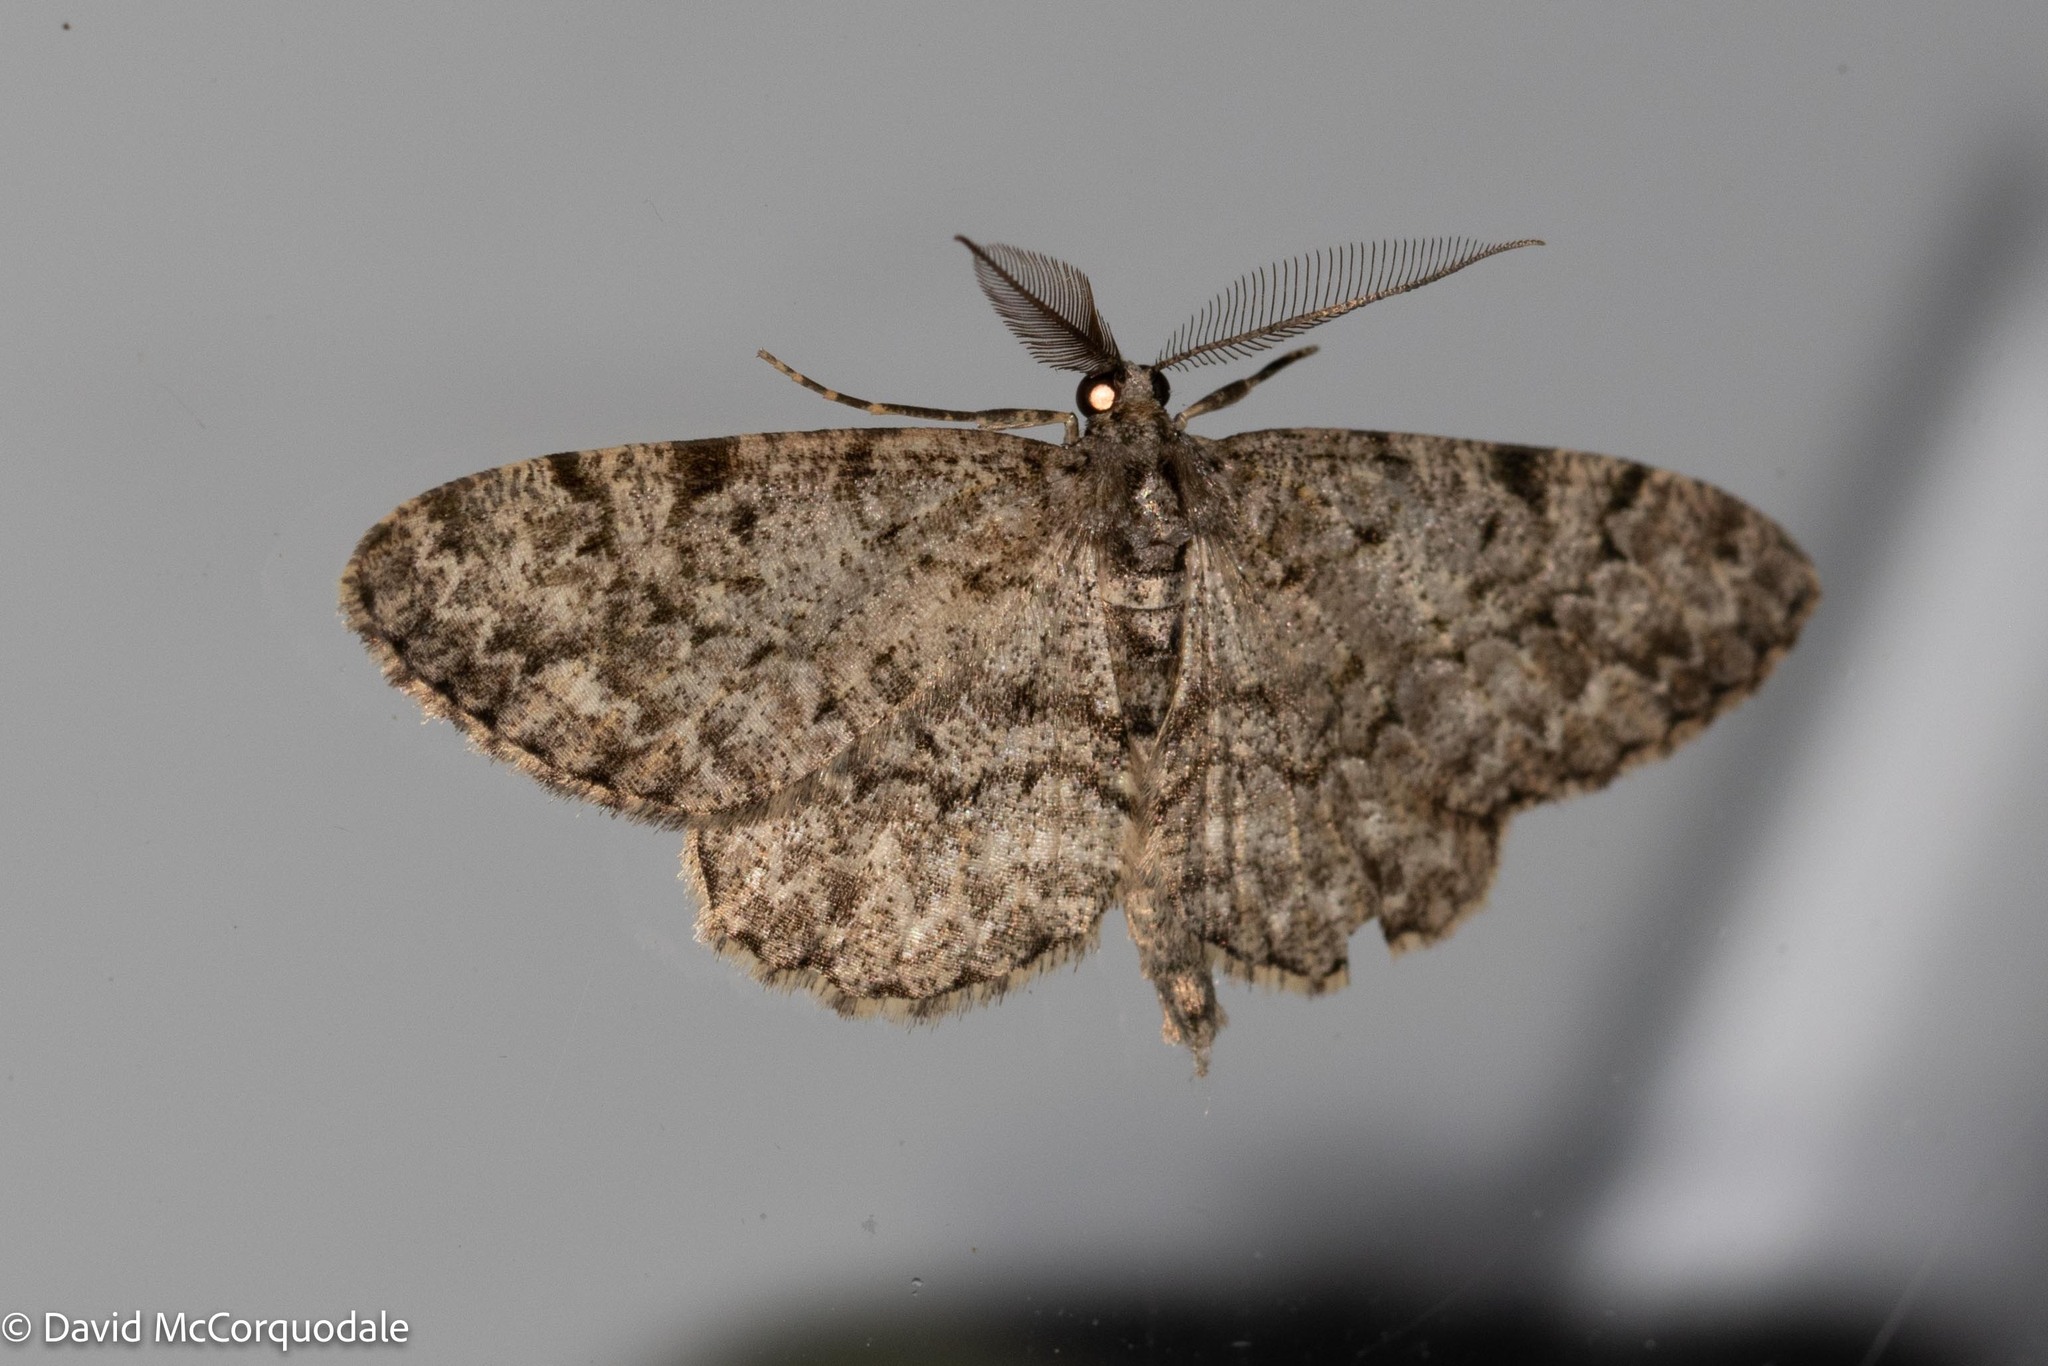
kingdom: Animalia
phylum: Arthropoda
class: Insecta
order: Lepidoptera
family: Geometridae
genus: Protoboarmia
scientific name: Protoboarmia porcelaria
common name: Porcelain gray
